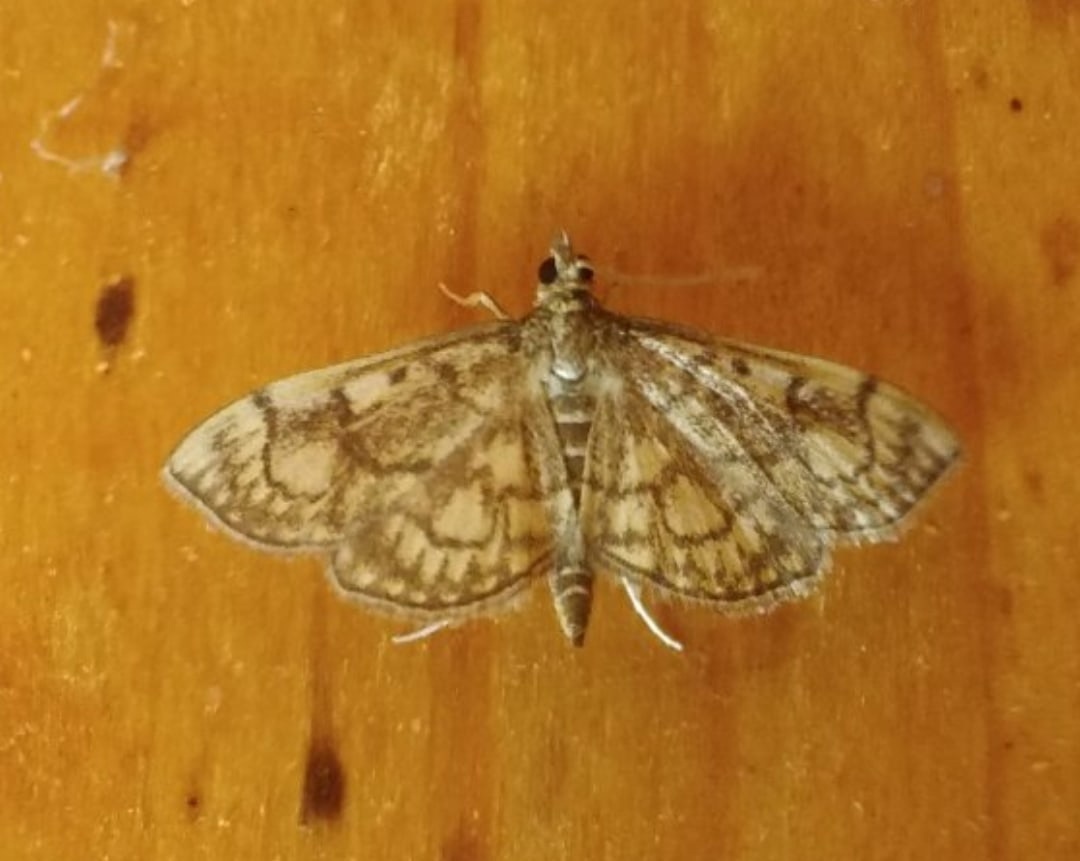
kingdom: Animalia
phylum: Arthropoda
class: Insecta
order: Lepidoptera
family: Crambidae
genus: Anania
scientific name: Anania stachydalis
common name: Woundwort pearl
